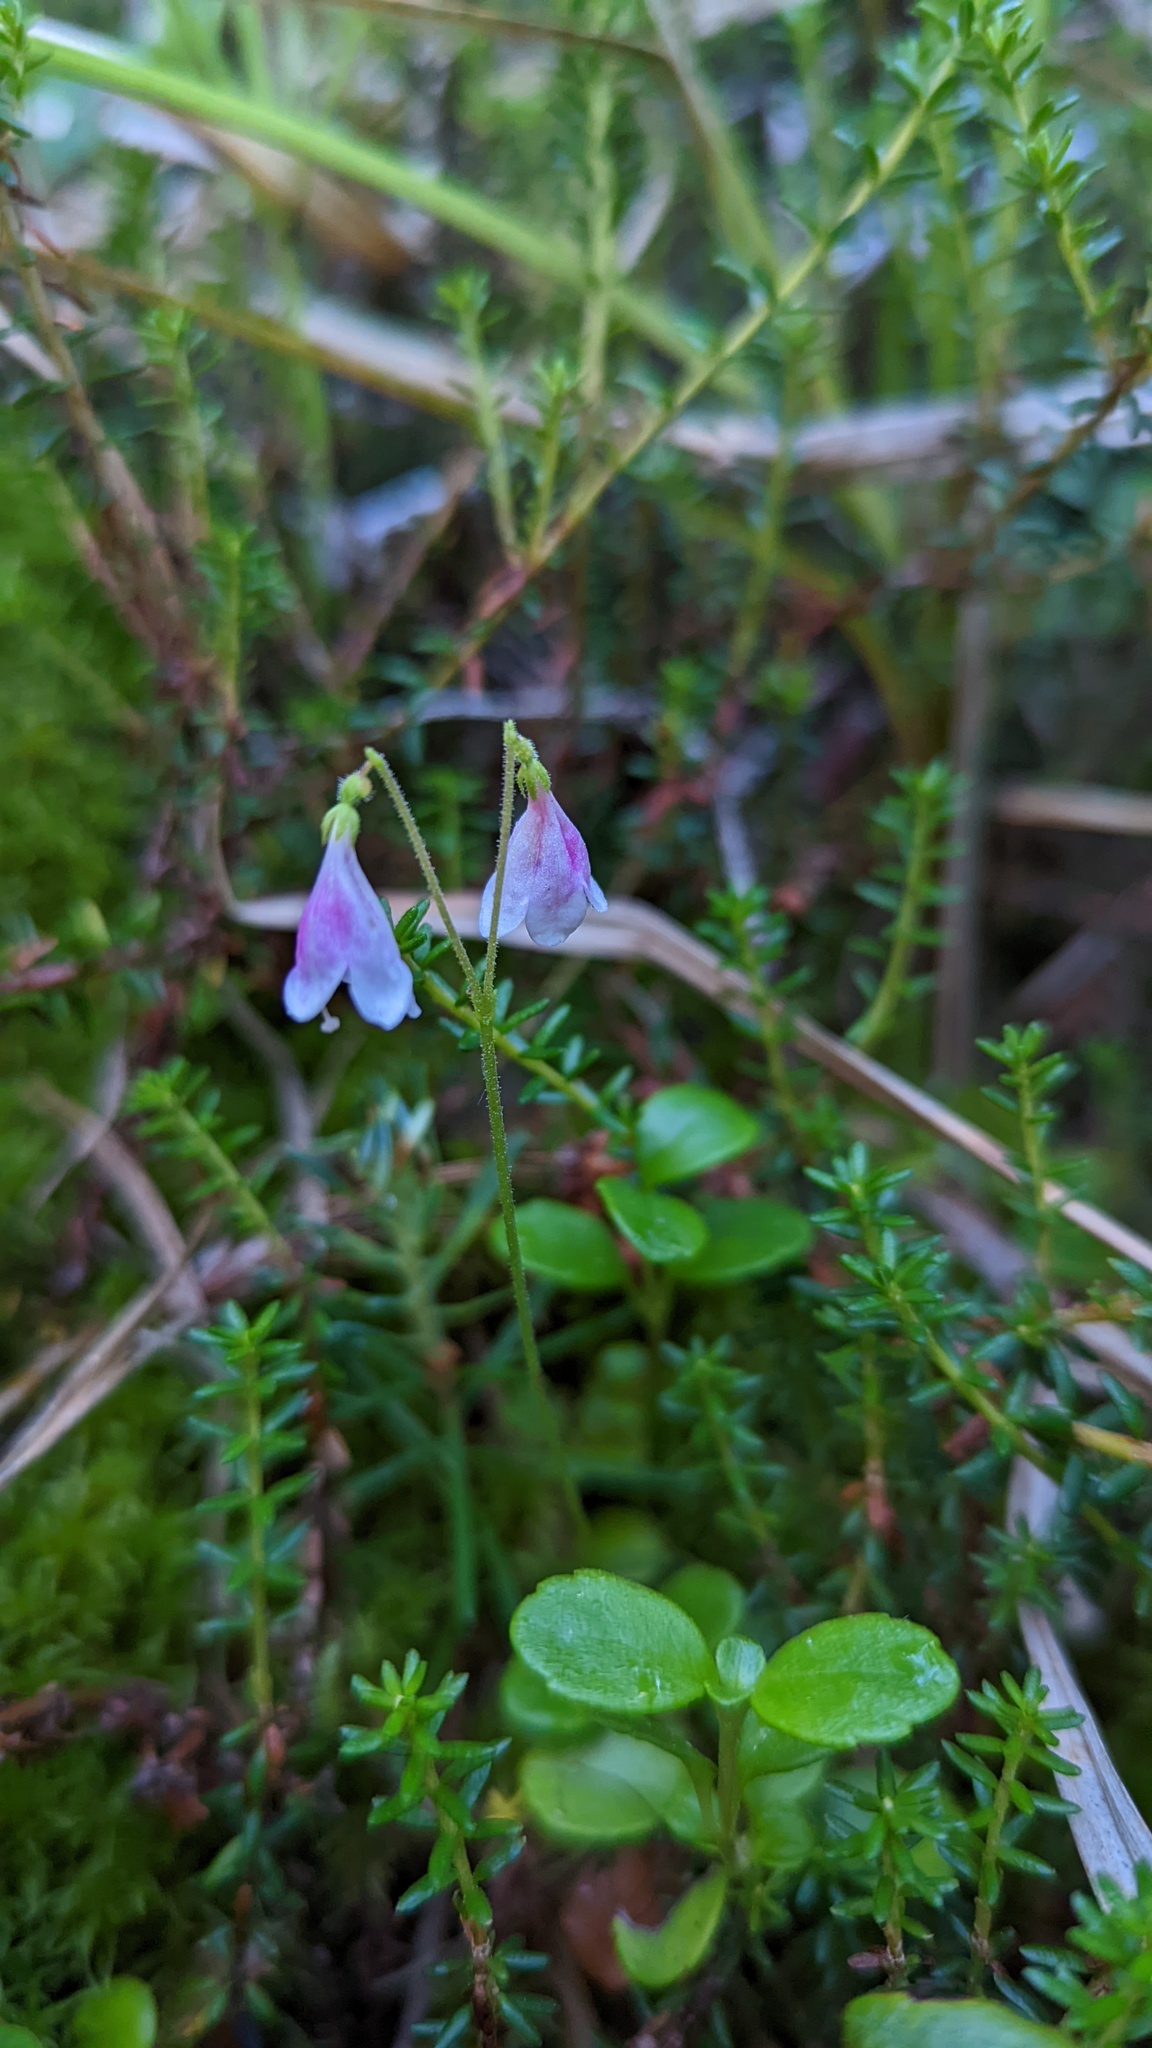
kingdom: Plantae
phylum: Tracheophyta
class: Magnoliopsida
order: Dipsacales
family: Caprifoliaceae
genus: Linnaea
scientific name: Linnaea borealis
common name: Twinflower
